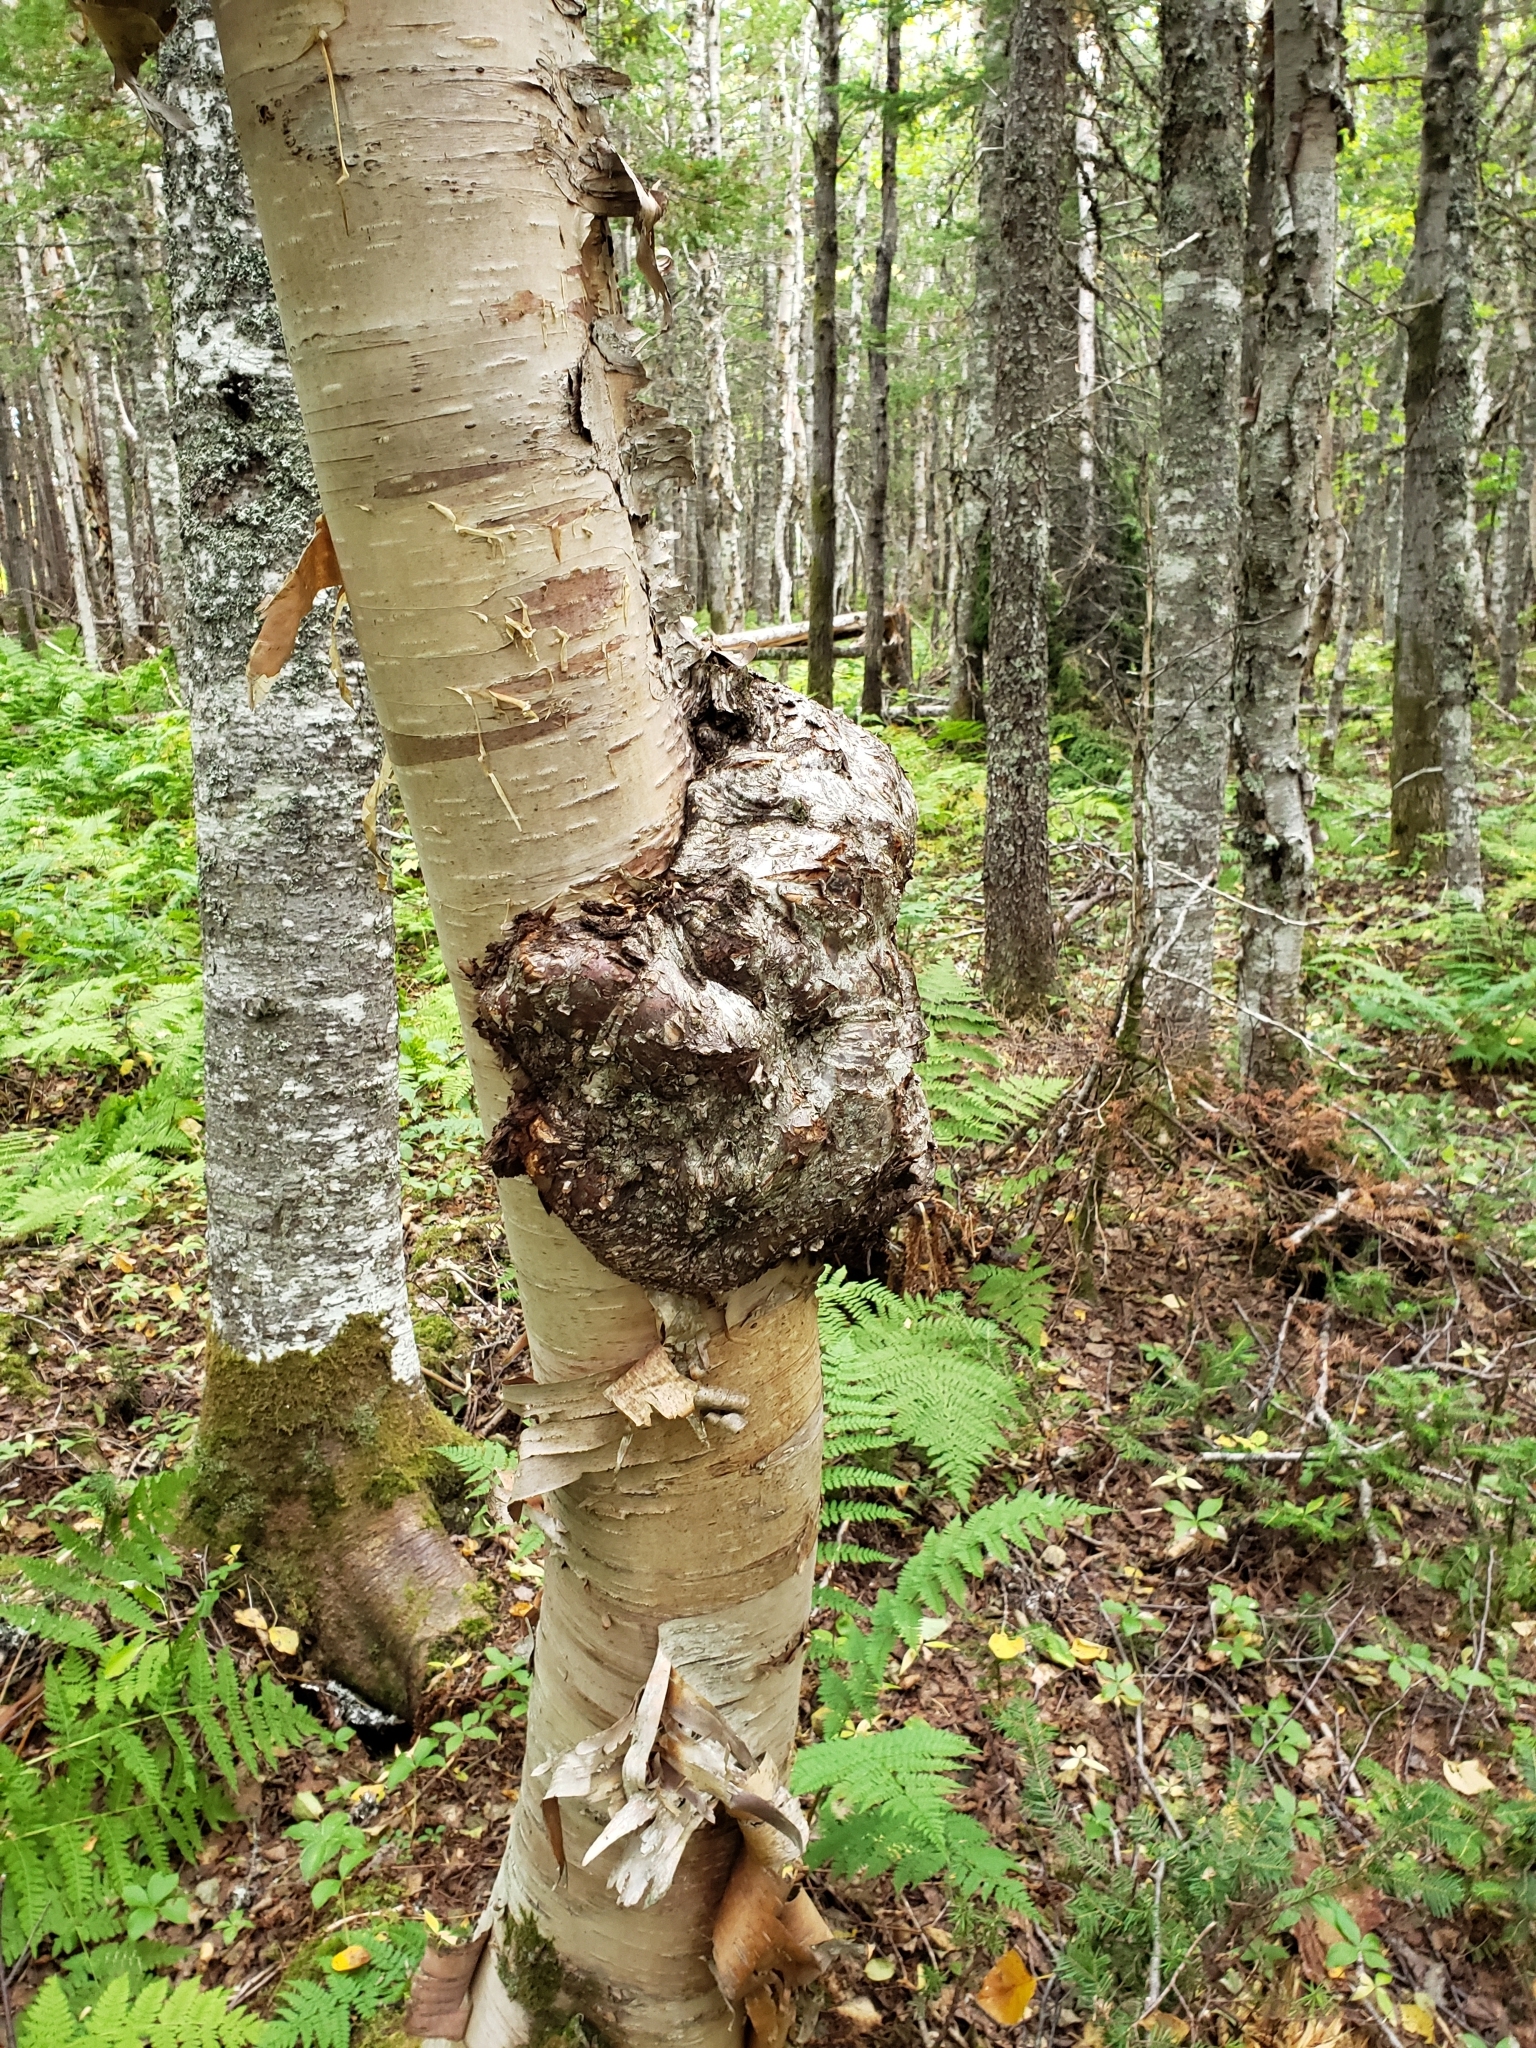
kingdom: Bacteria
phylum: Proteobacteria
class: Alphaproteobacteria
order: Rhizobiales
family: Rhizobiaceae
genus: Rhizobium
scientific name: Rhizobium Agrobacterium radiobacter
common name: Bacterial crown gall
